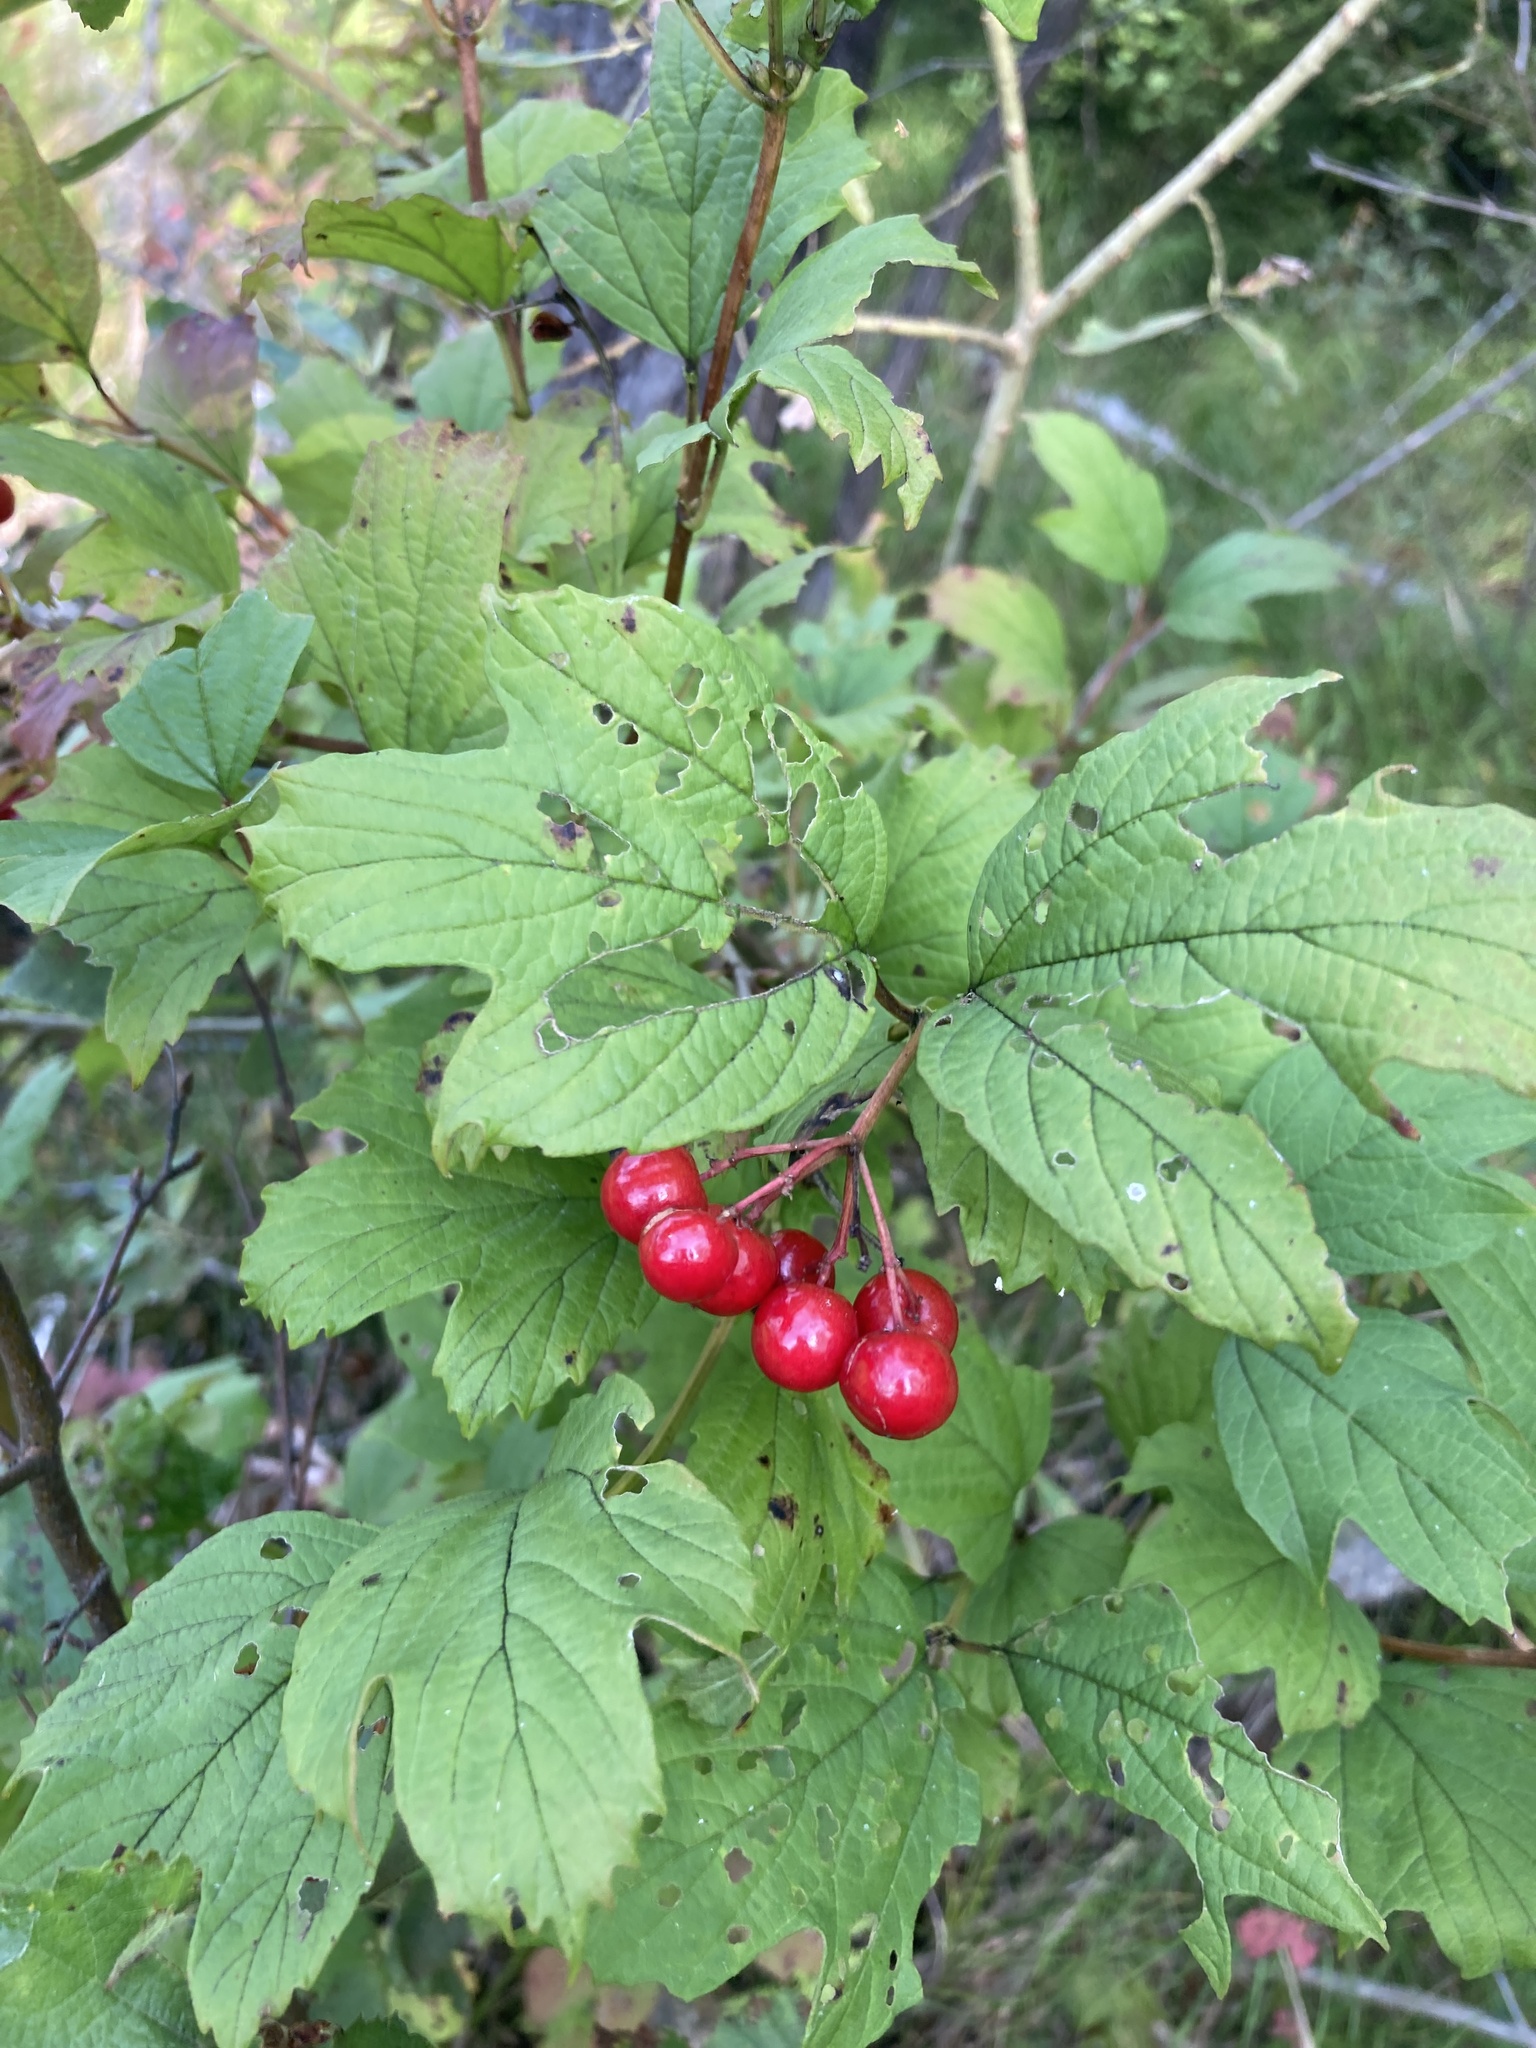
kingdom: Plantae
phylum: Tracheophyta
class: Magnoliopsida
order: Dipsacales
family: Viburnaceae
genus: Viburnum
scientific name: Viburnum opulus
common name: Guelder-rose
